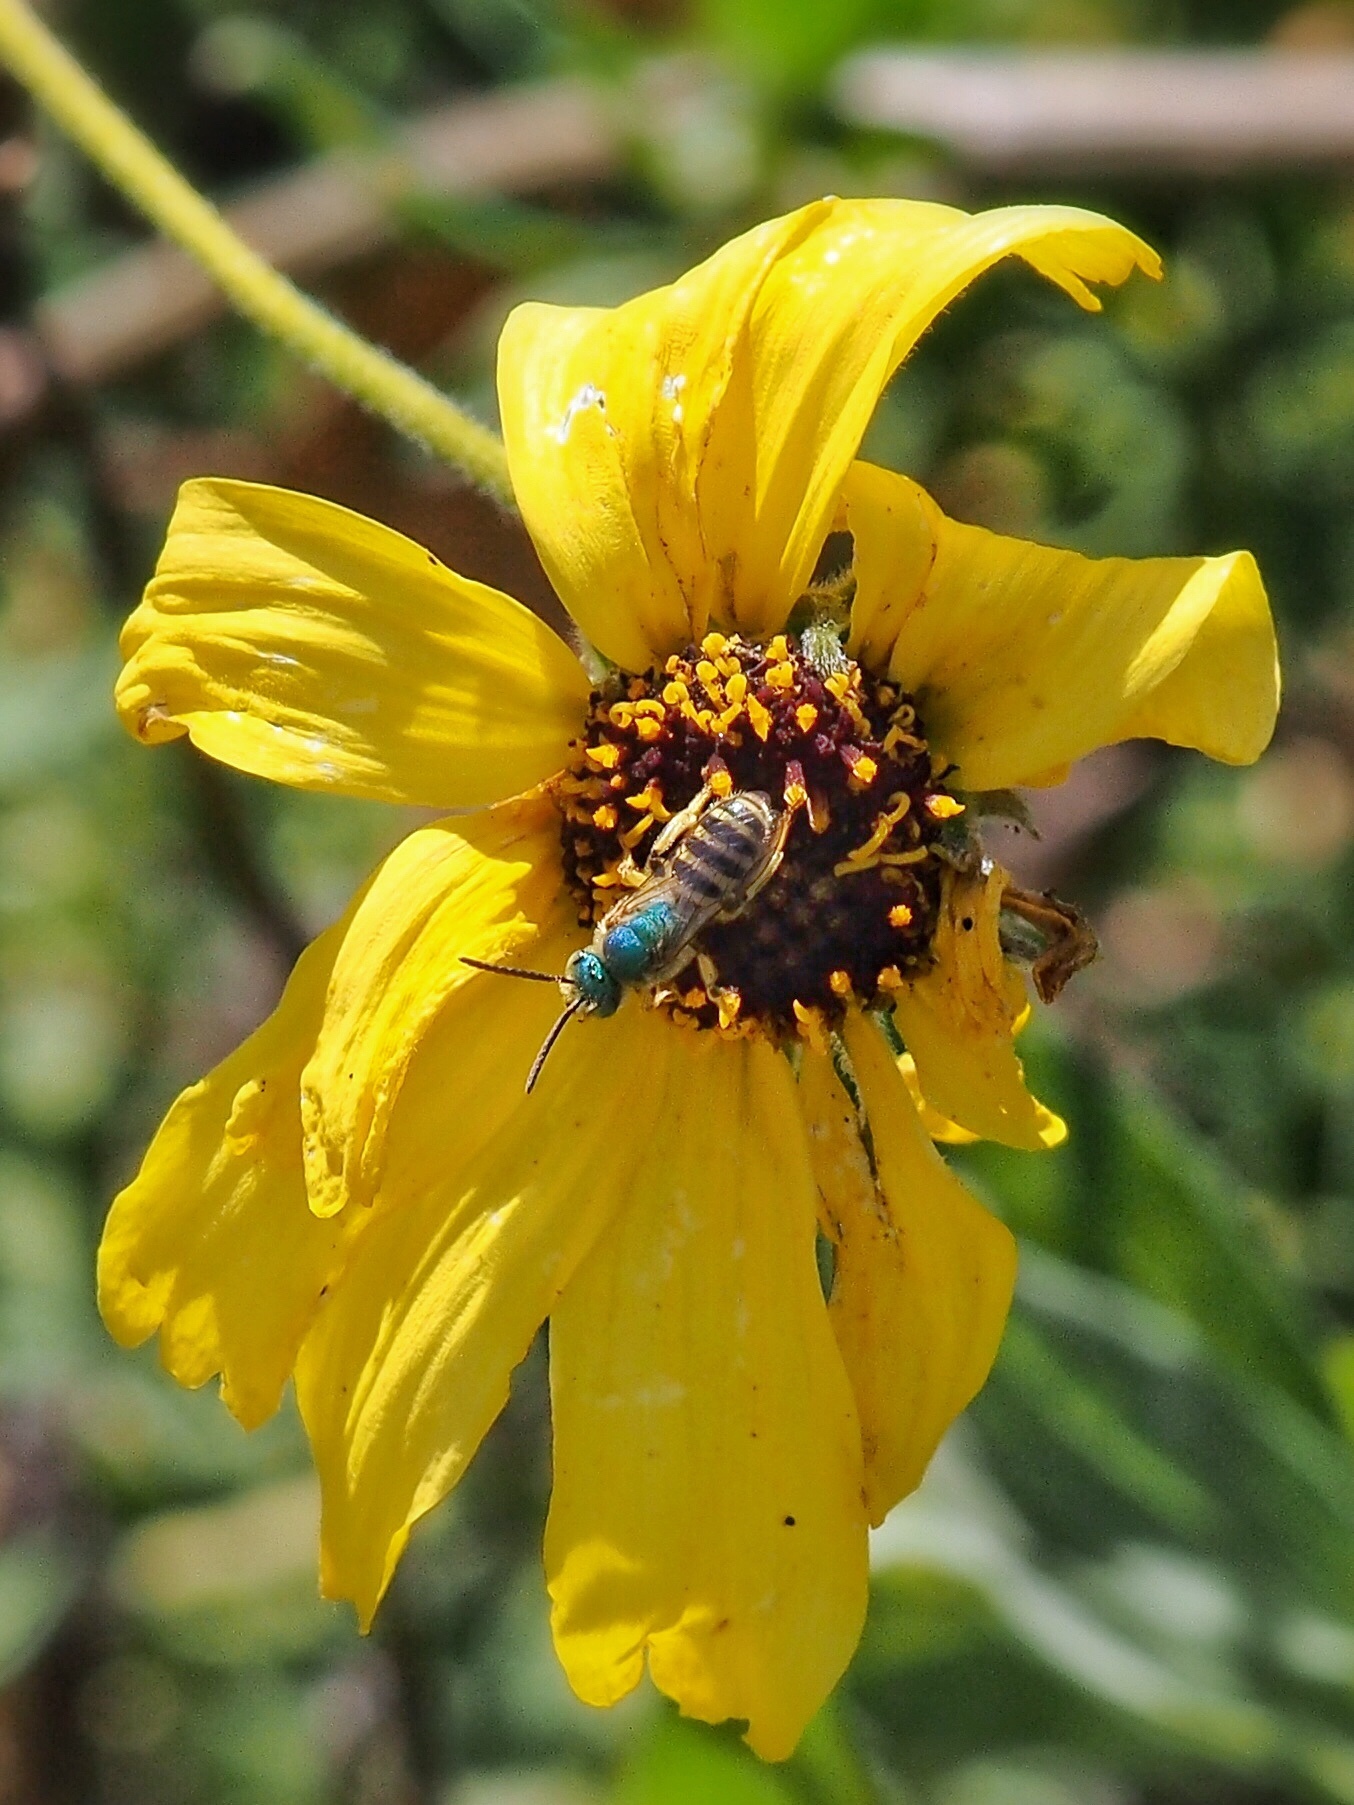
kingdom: Animalia
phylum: Arthropoda
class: Insecta
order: Hymenoptera
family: Halictidae
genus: Agapostemon
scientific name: Agapostemon texanus
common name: Texas striped sweat bee
